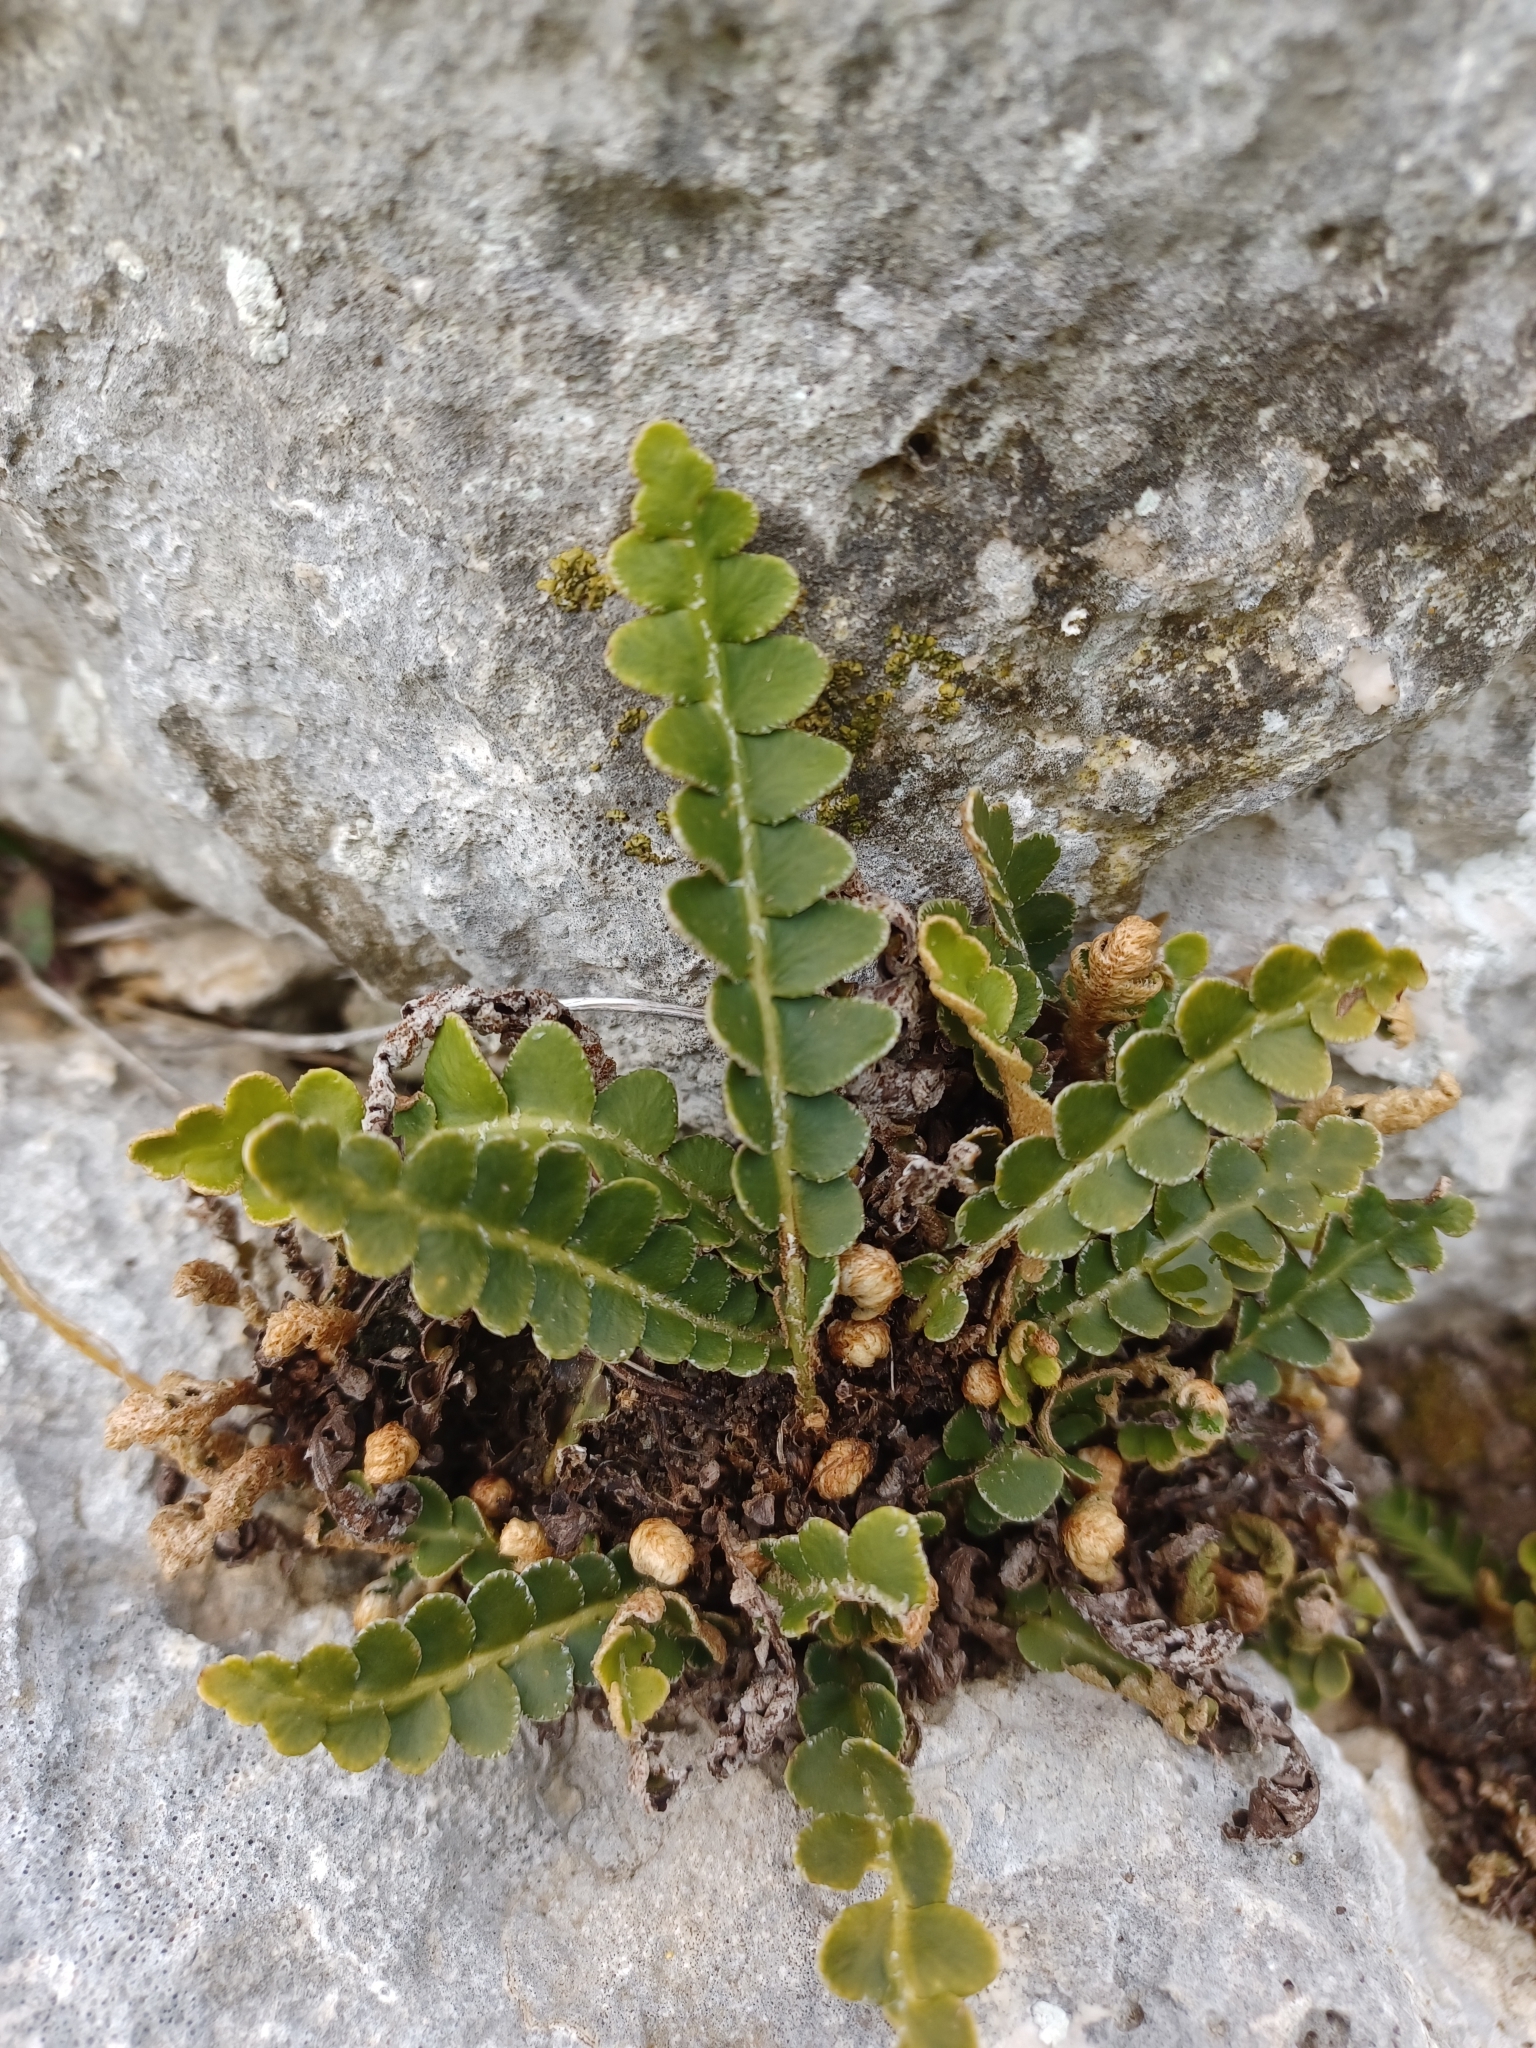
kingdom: Plantae
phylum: Tracheophyta
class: Polypodiopsida
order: Polypodiales
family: Aspleniaceae
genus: Asplenium
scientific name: Asplenium ceterach
